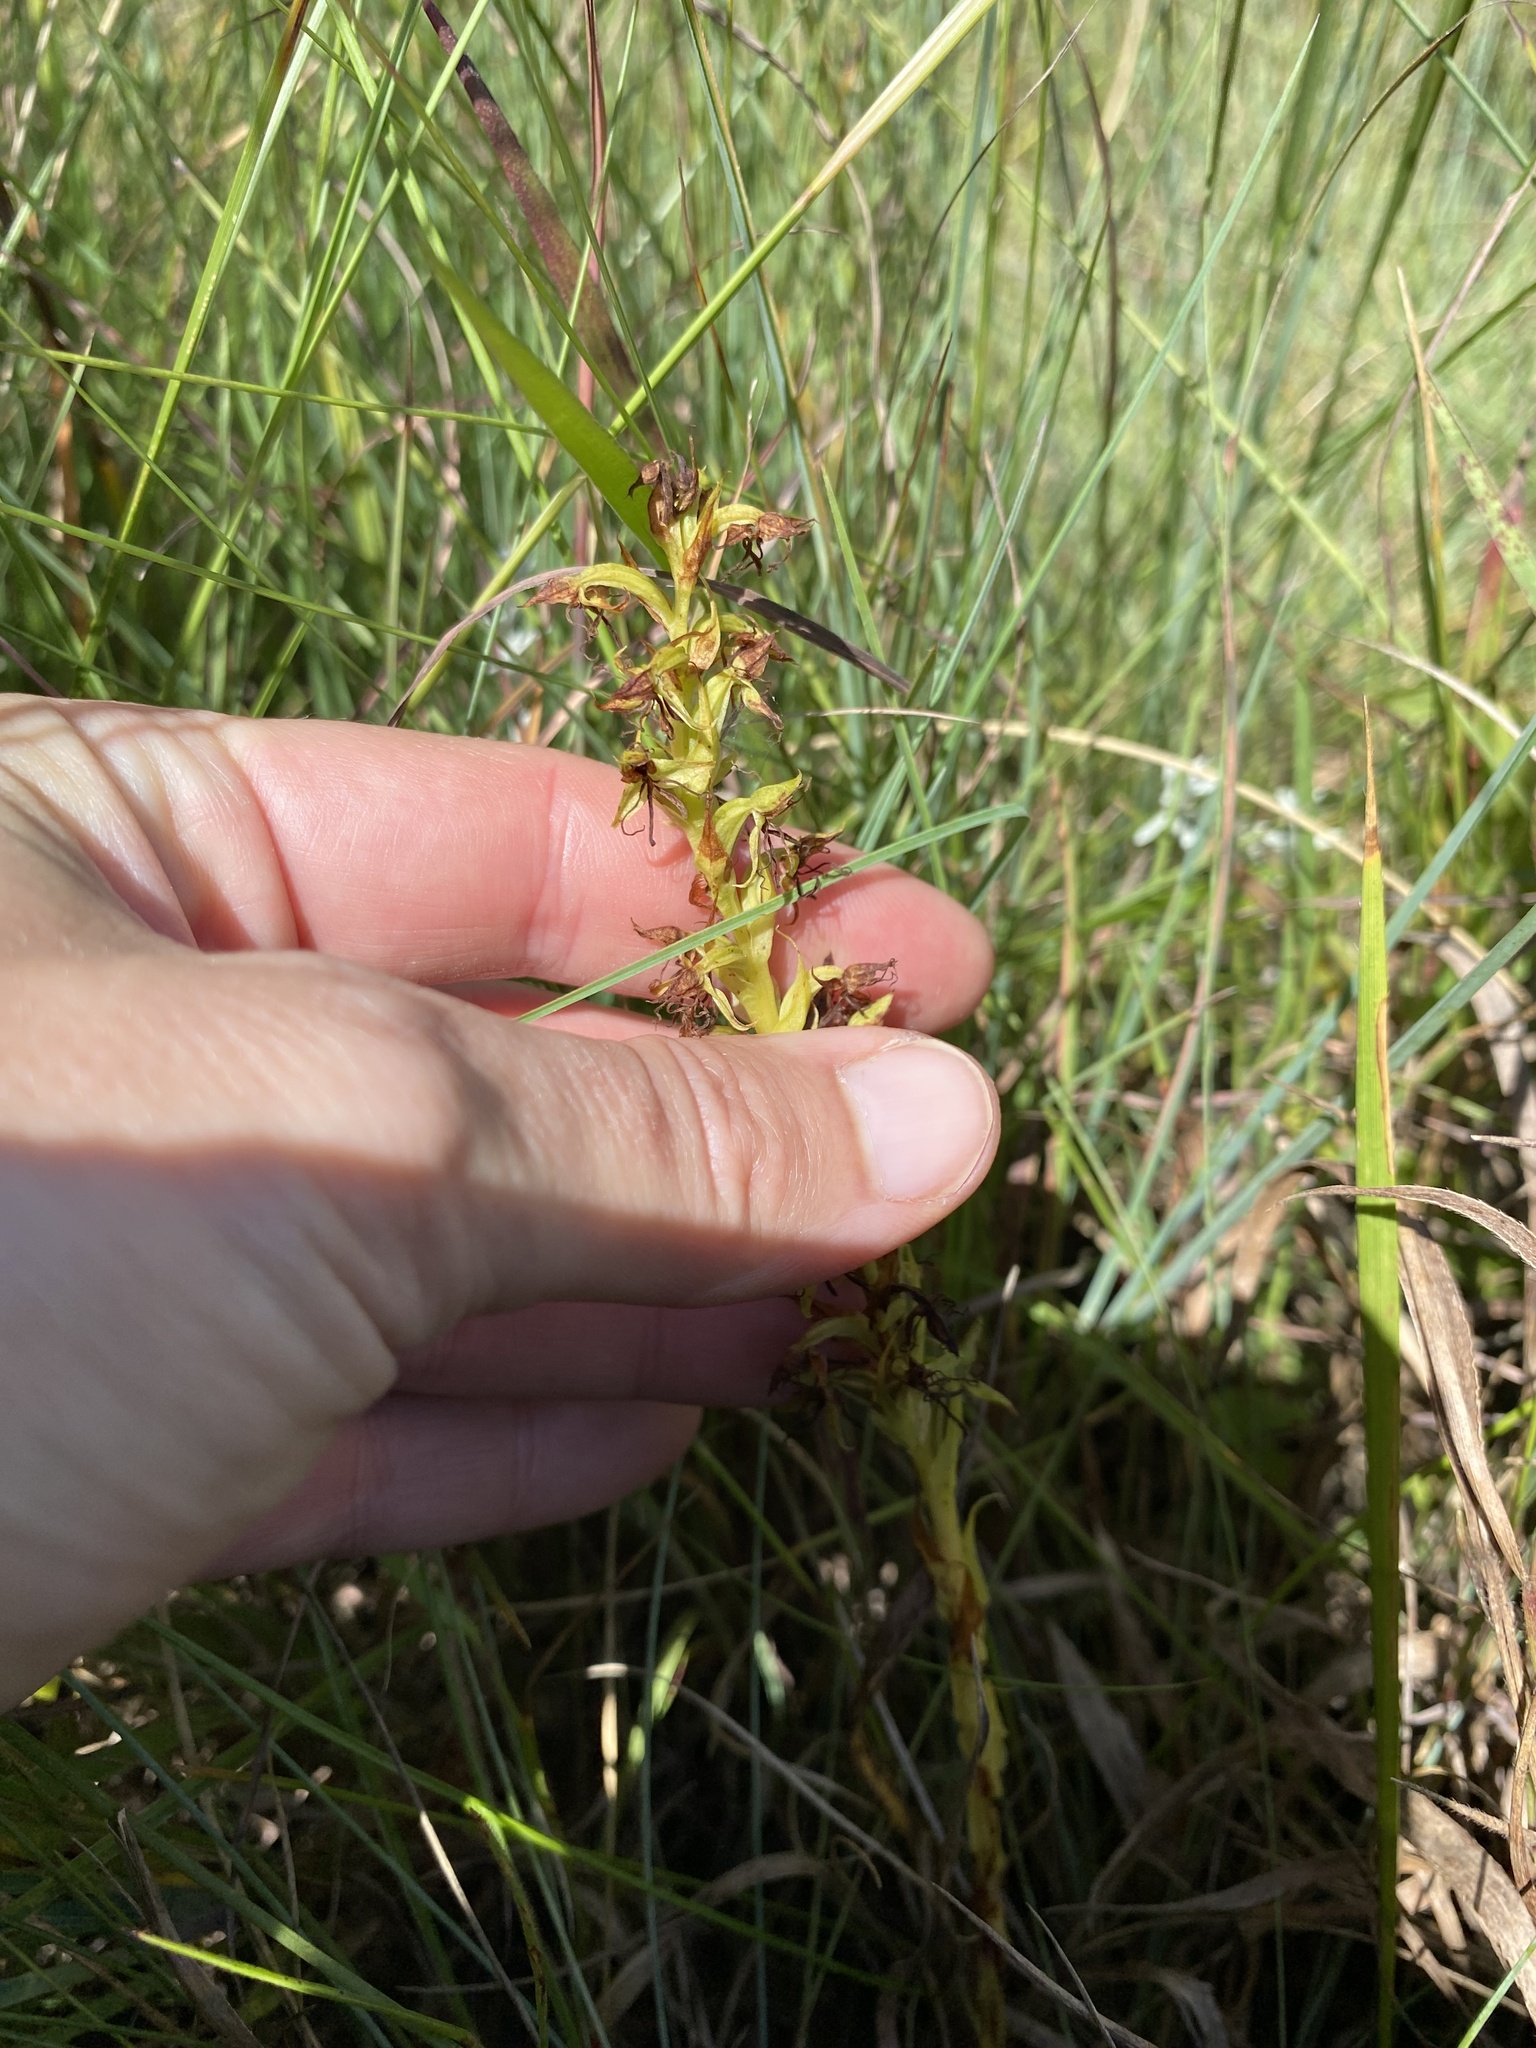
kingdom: Plantae
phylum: Tracheophyta
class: Liliopsida
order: Asparagales
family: Orchidaceae
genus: Habenaria
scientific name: Habenaria dregeana
